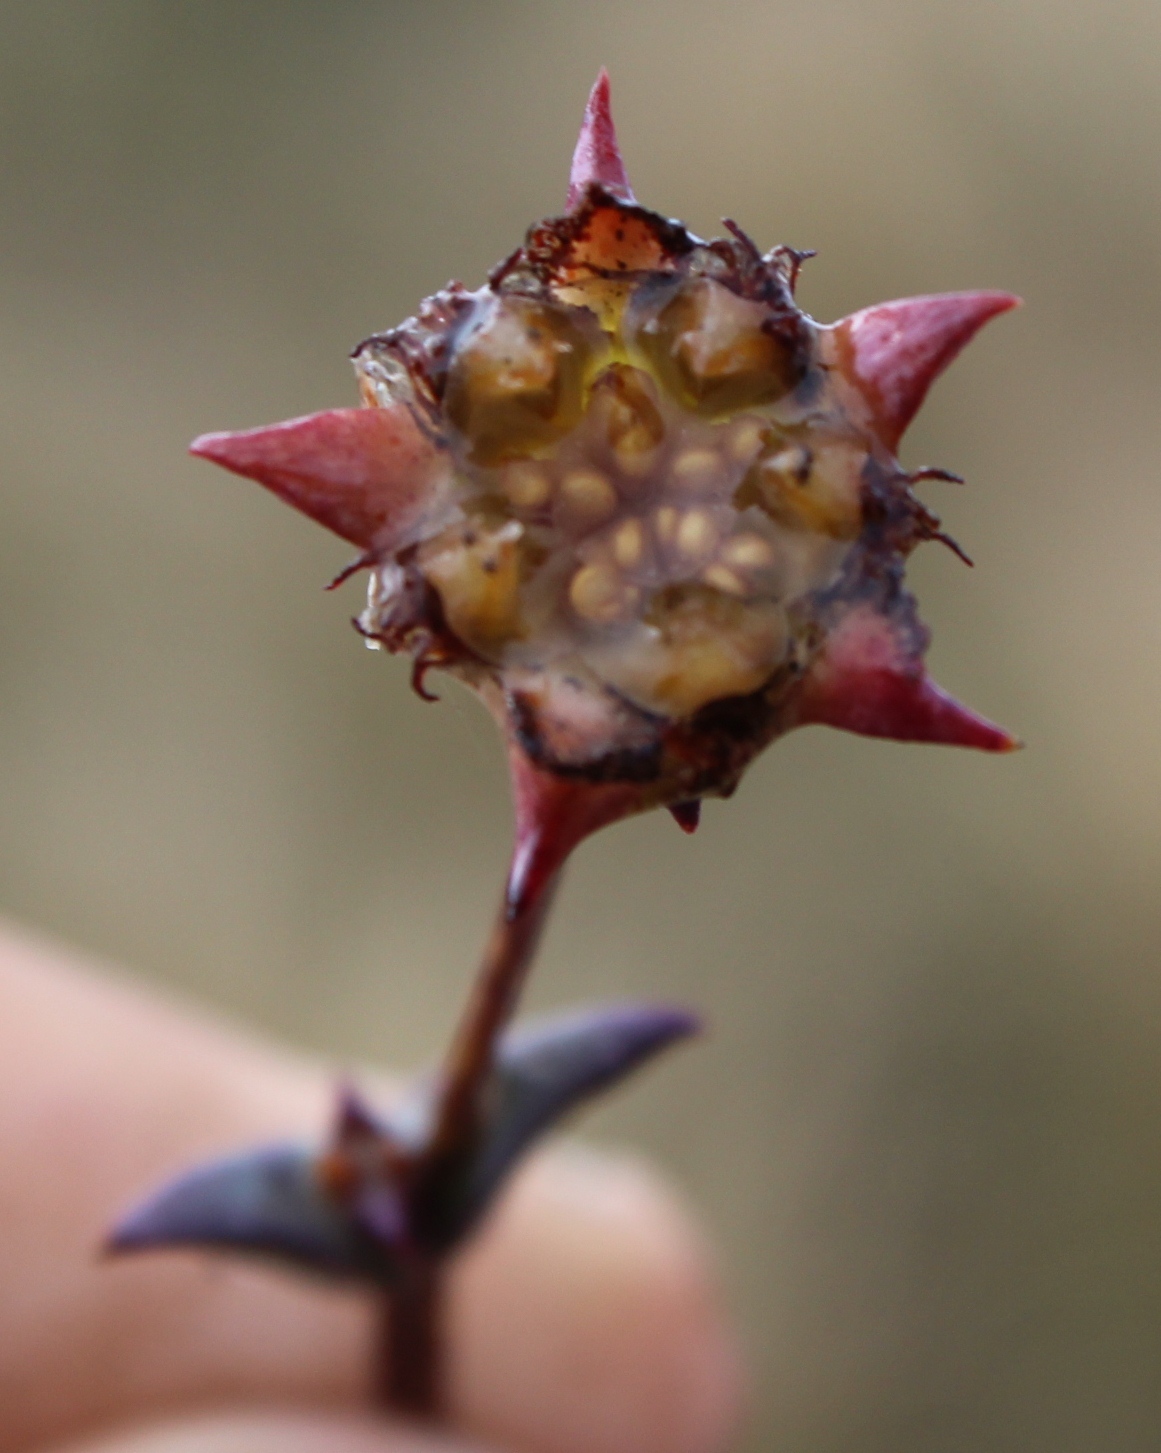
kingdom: Plantae
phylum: Tracheophyta
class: Magnoliopsida
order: Caryophyllales
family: Aizoaceae
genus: Erepsia
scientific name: Erepsia ramosa
